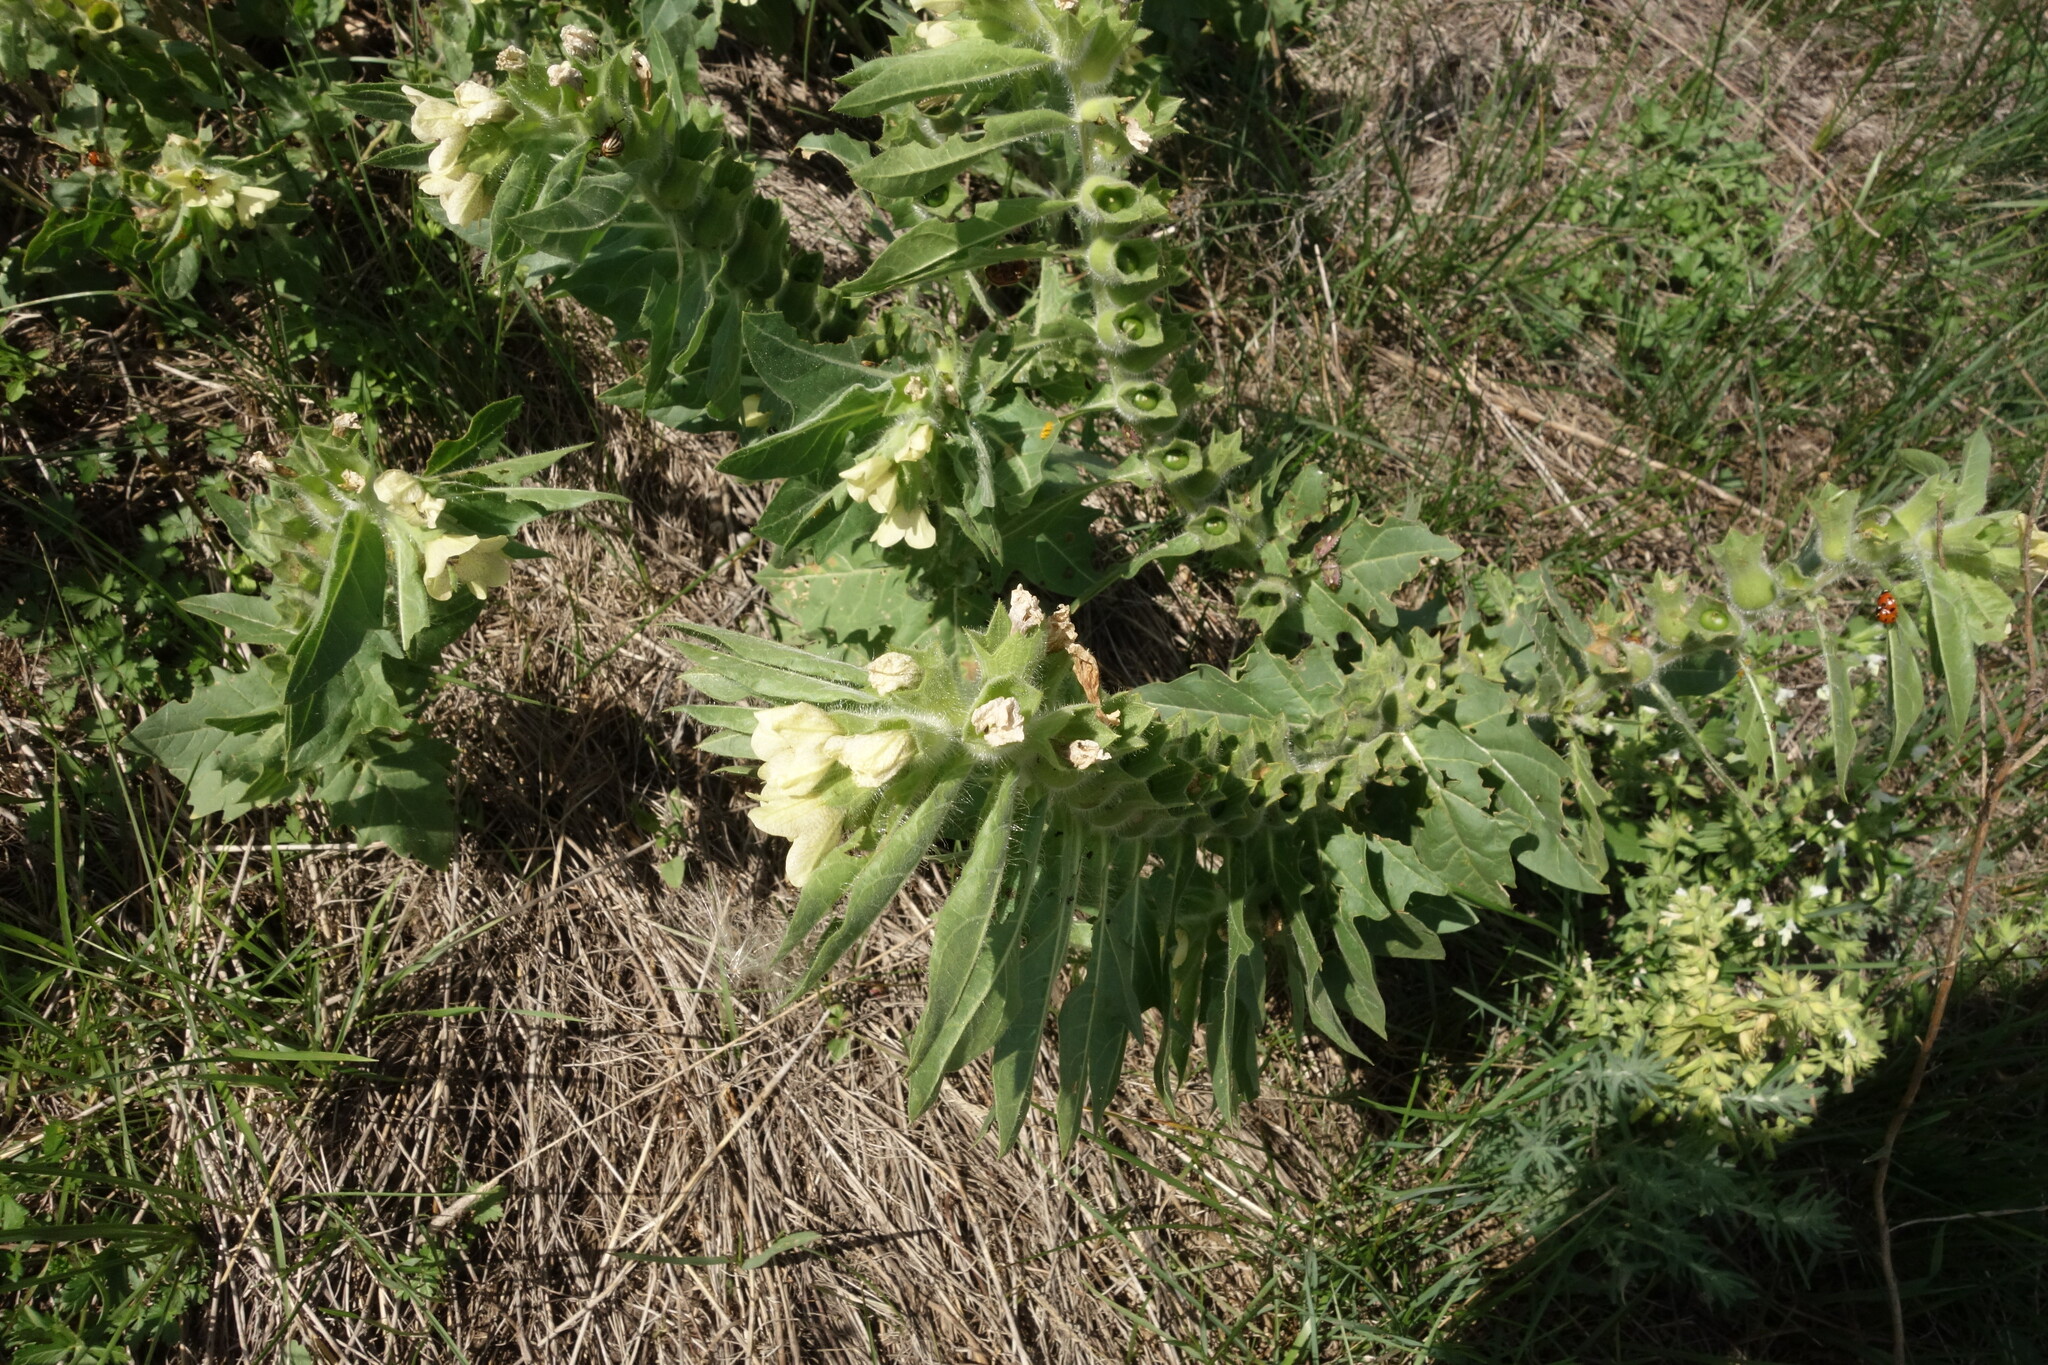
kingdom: Plantae
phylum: Tracheophyta
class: Magnoliopsida
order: Solanales
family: Solanaceae
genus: Hyoscyamus
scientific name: Hyoscyamus niger
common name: Henbane
